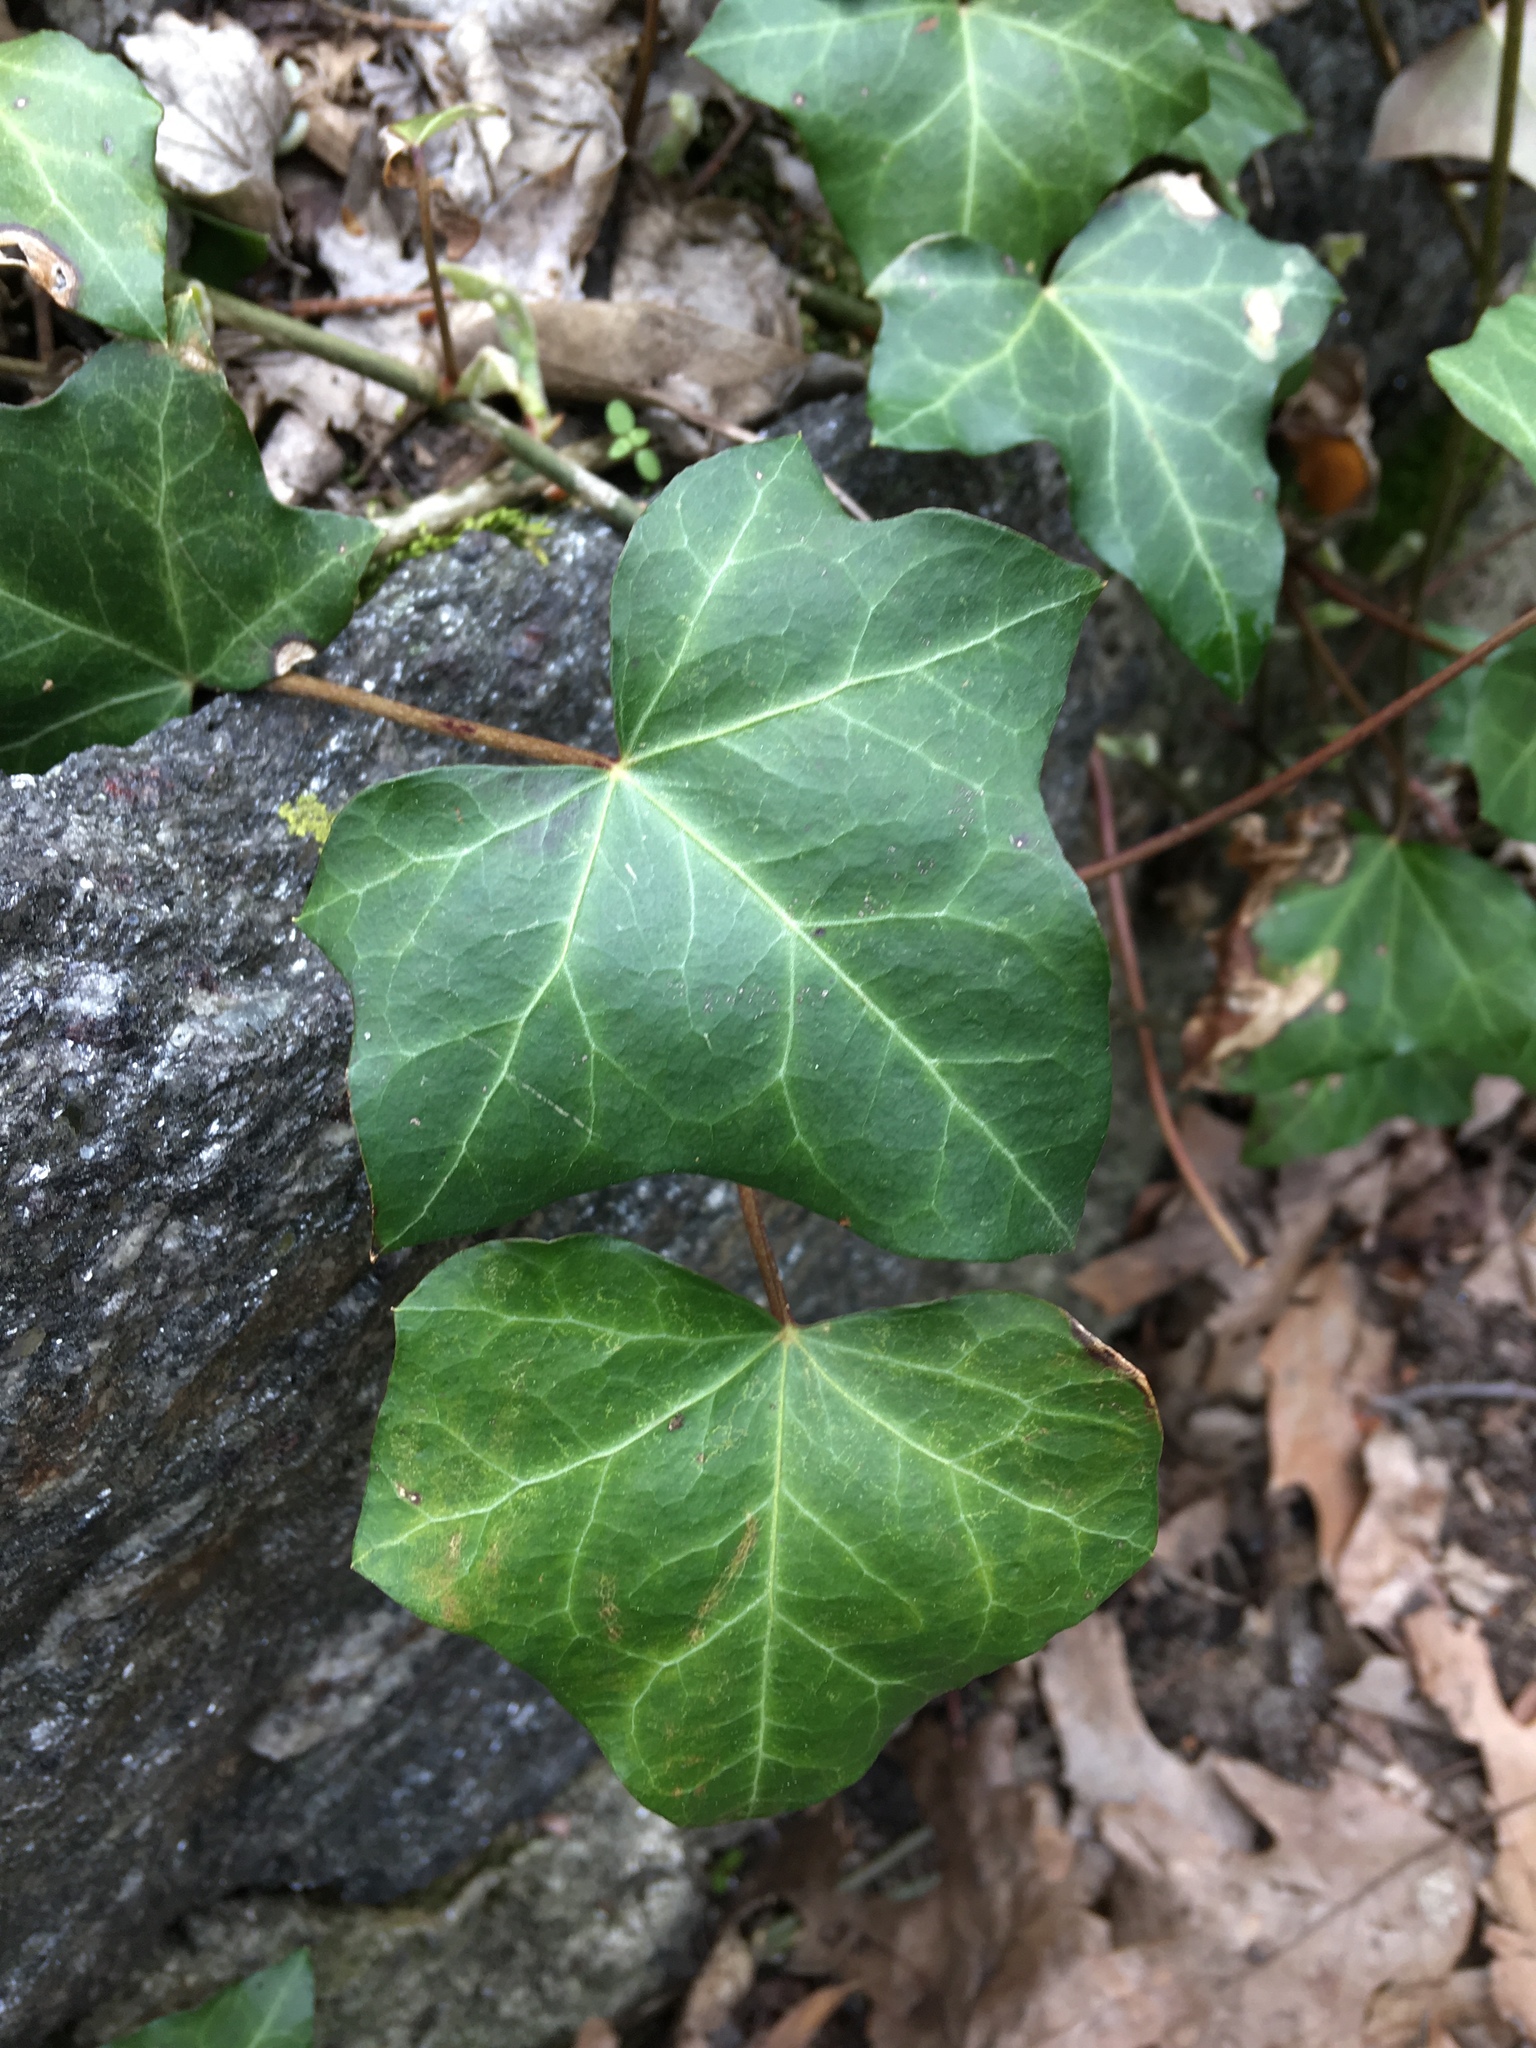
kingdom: Plantae
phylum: Tracheophyta
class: Magnoliopsida
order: Apiales
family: Araliaceae
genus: Hedera
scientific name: Hedera helix
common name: Ivy
